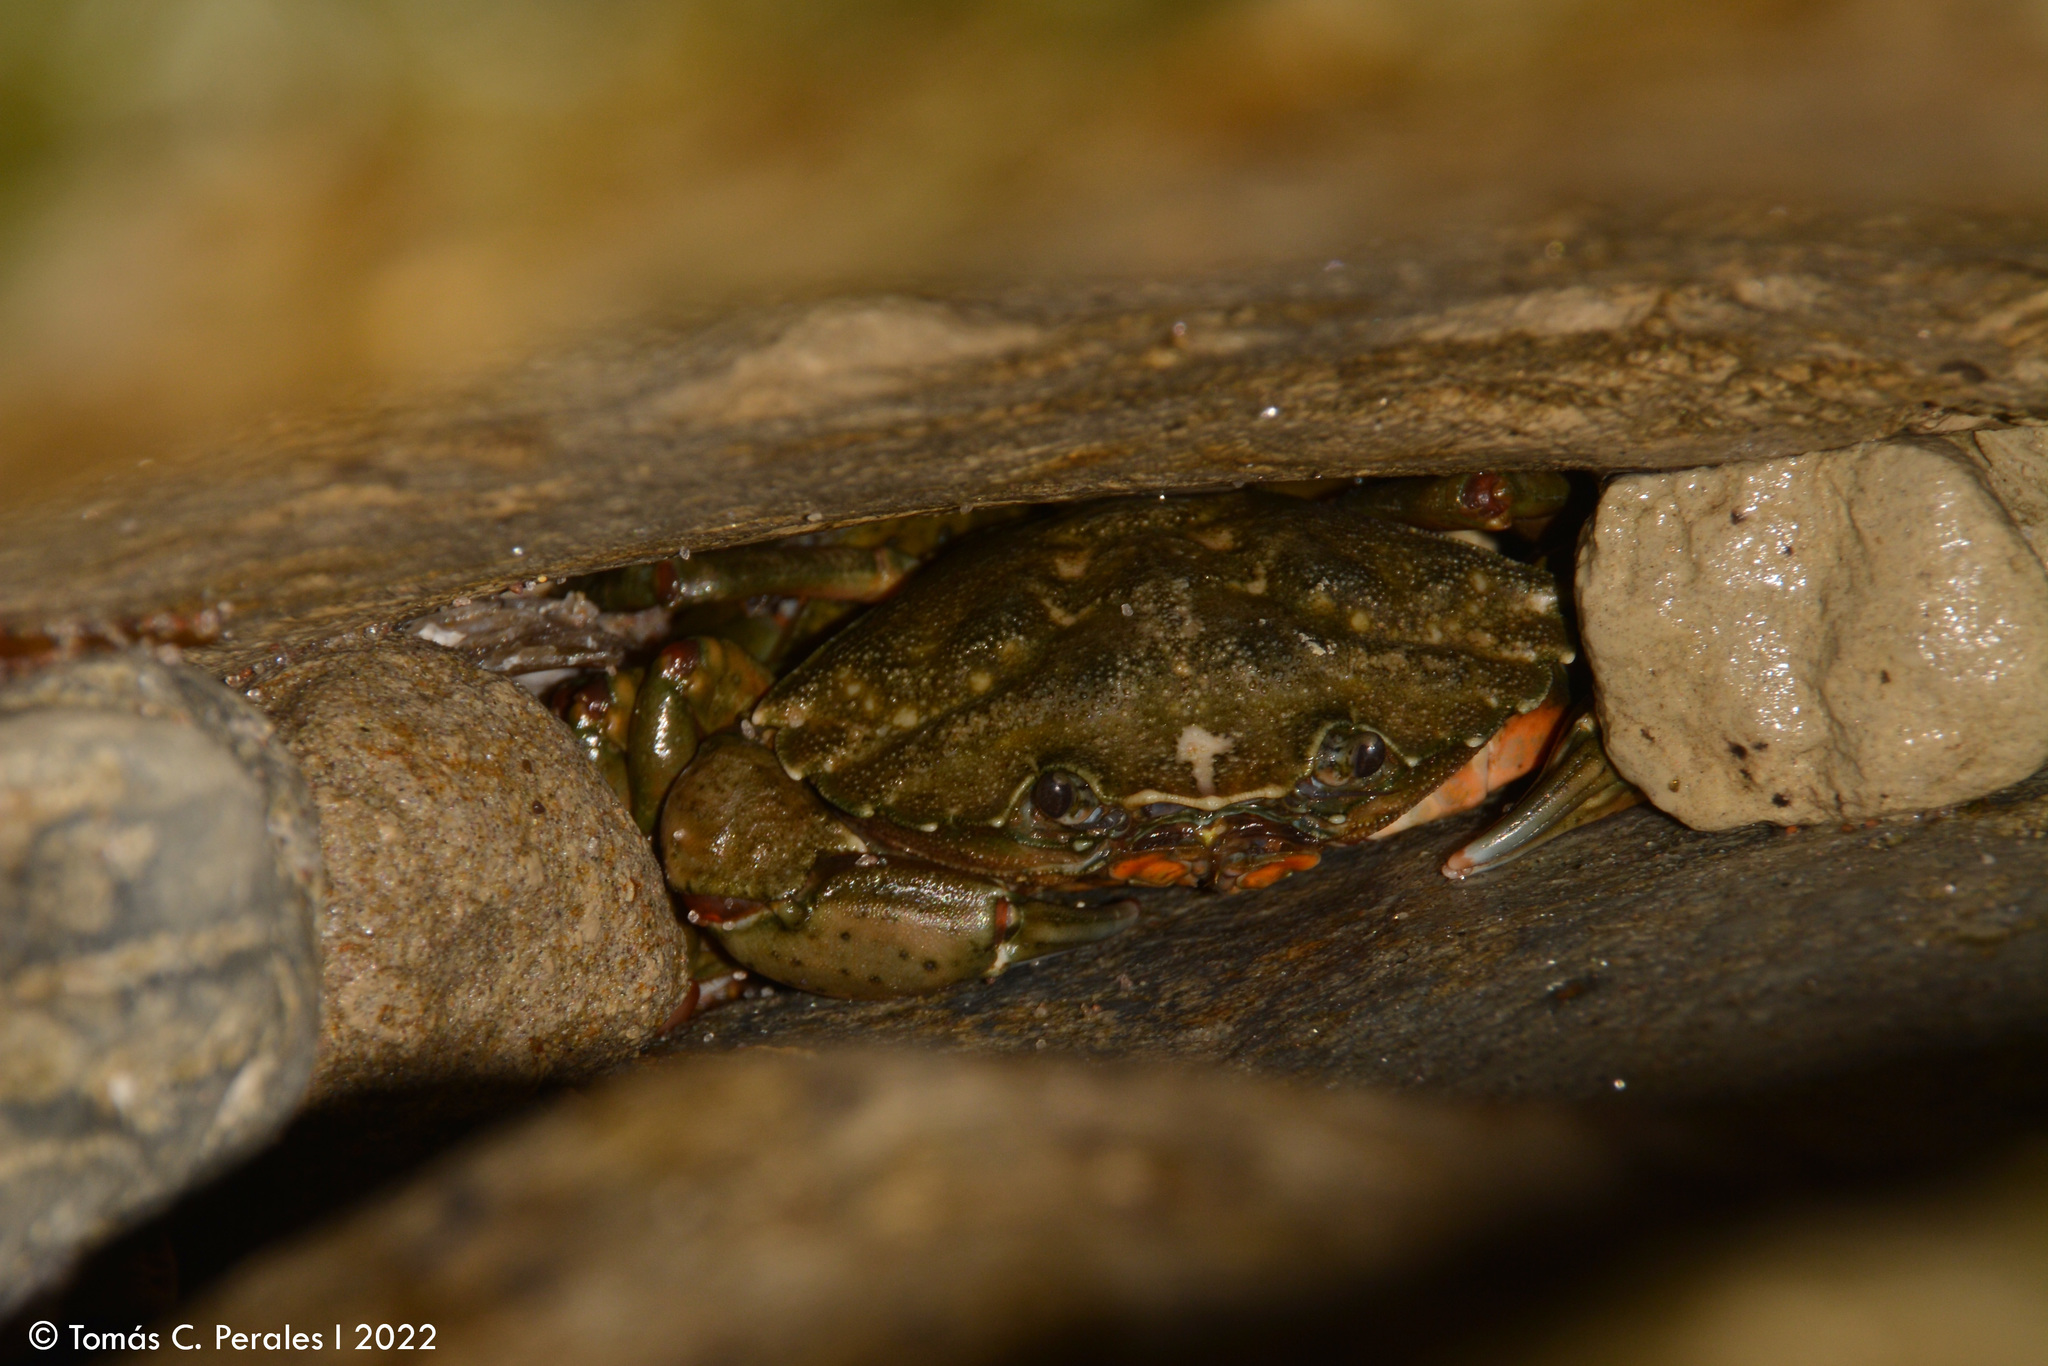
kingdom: Animalia
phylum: Arthropoda
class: Malacostraca
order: Decapoda
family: Carcinidae
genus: Carcinus
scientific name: Carcinus maenas
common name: European green crab
